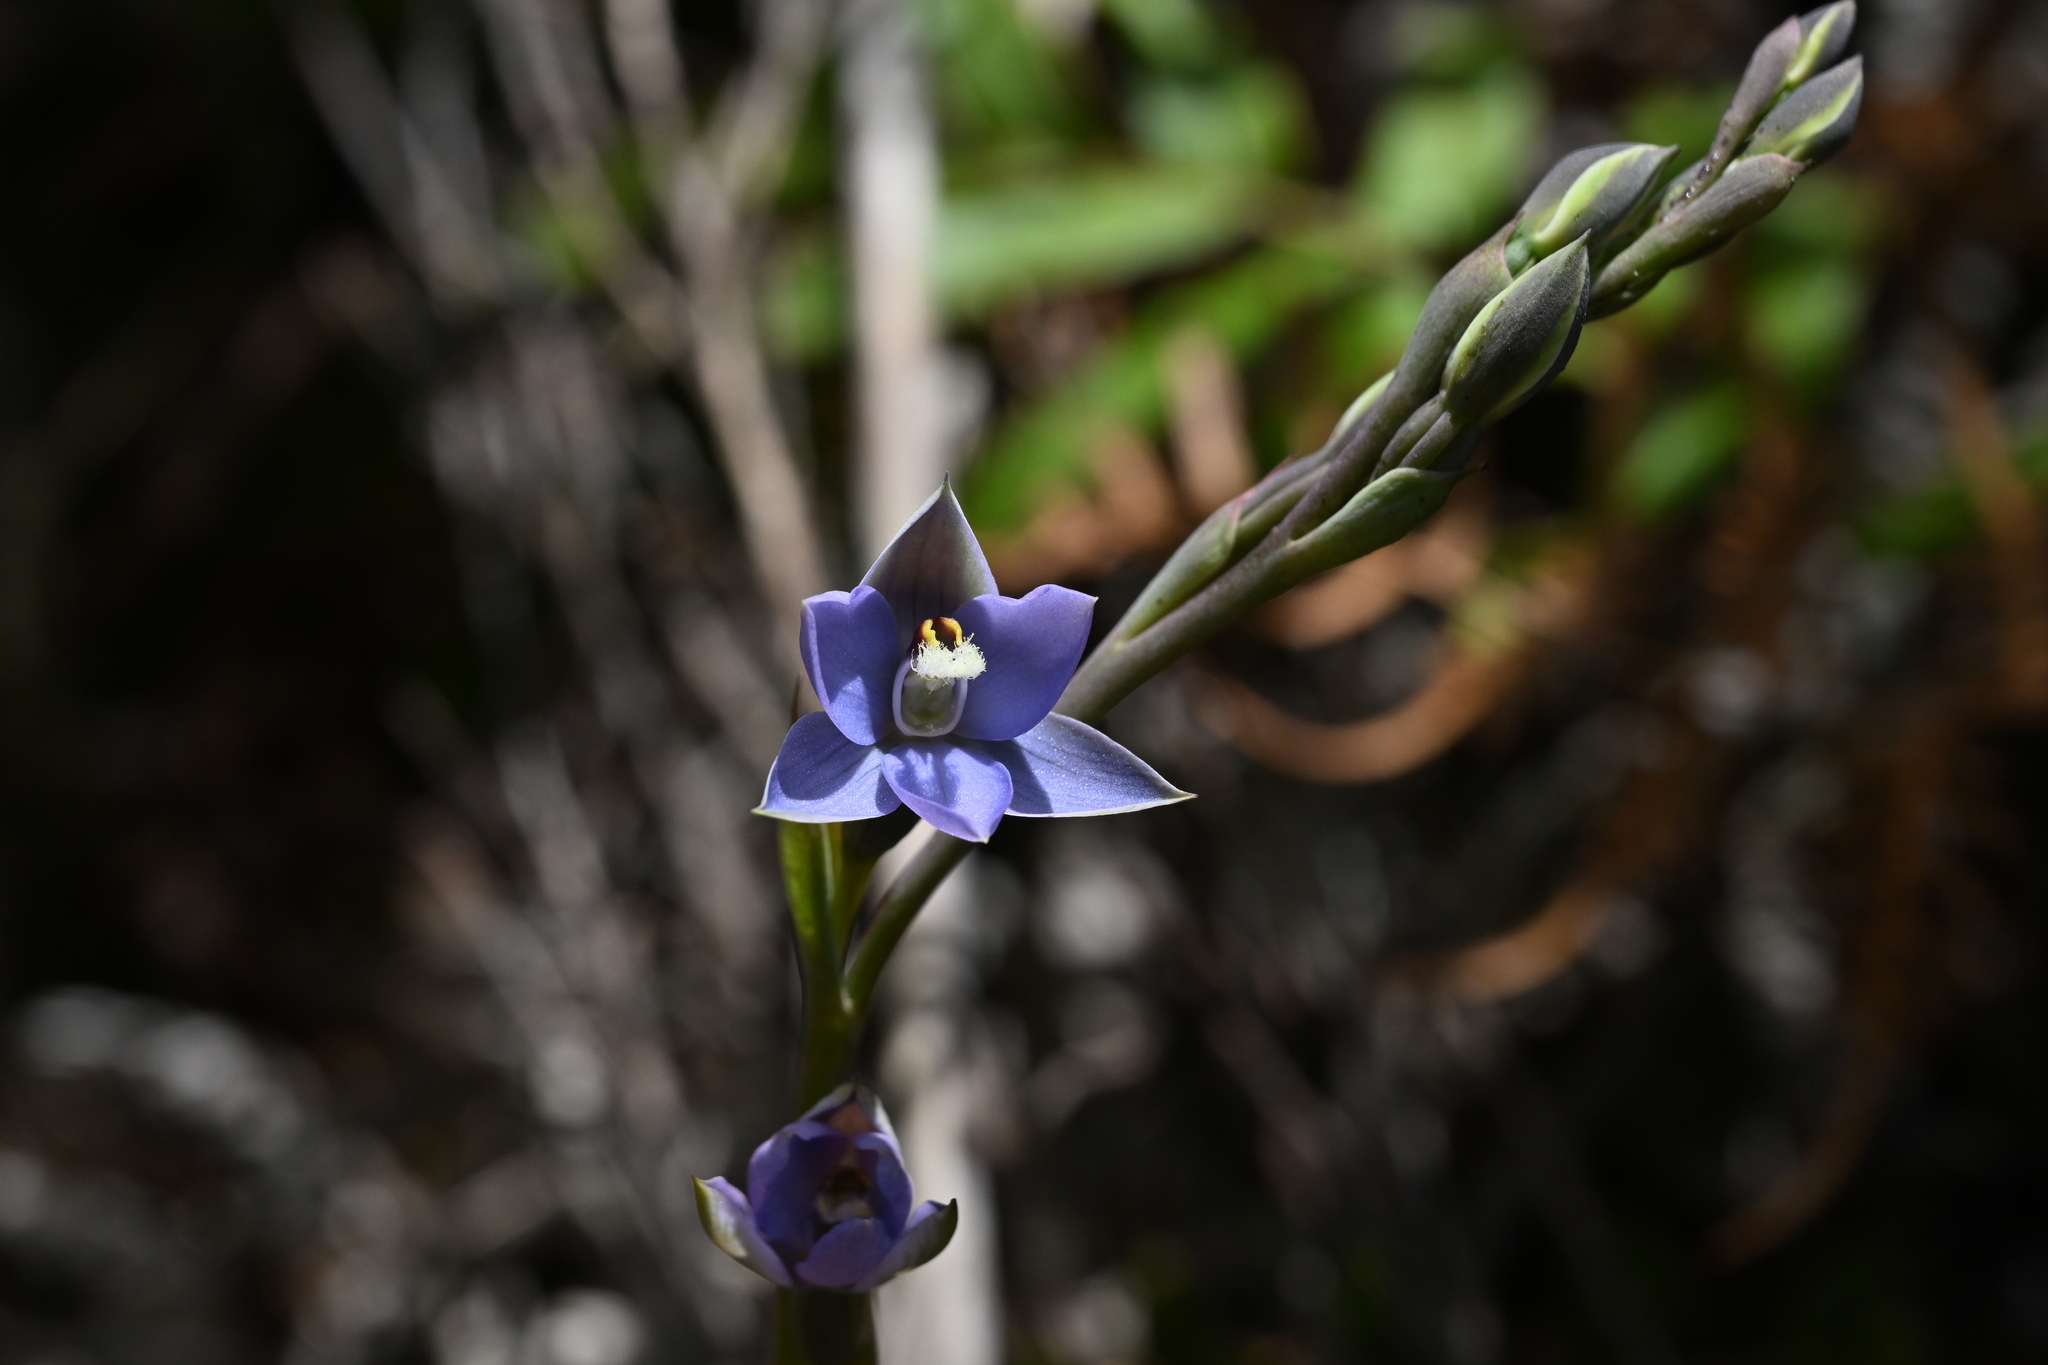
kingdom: Plantae
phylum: Tracheophyta
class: Liliopsida
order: Asparagales
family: Orchidaceae
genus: Thelymitra
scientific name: Thelymitra hatchii
